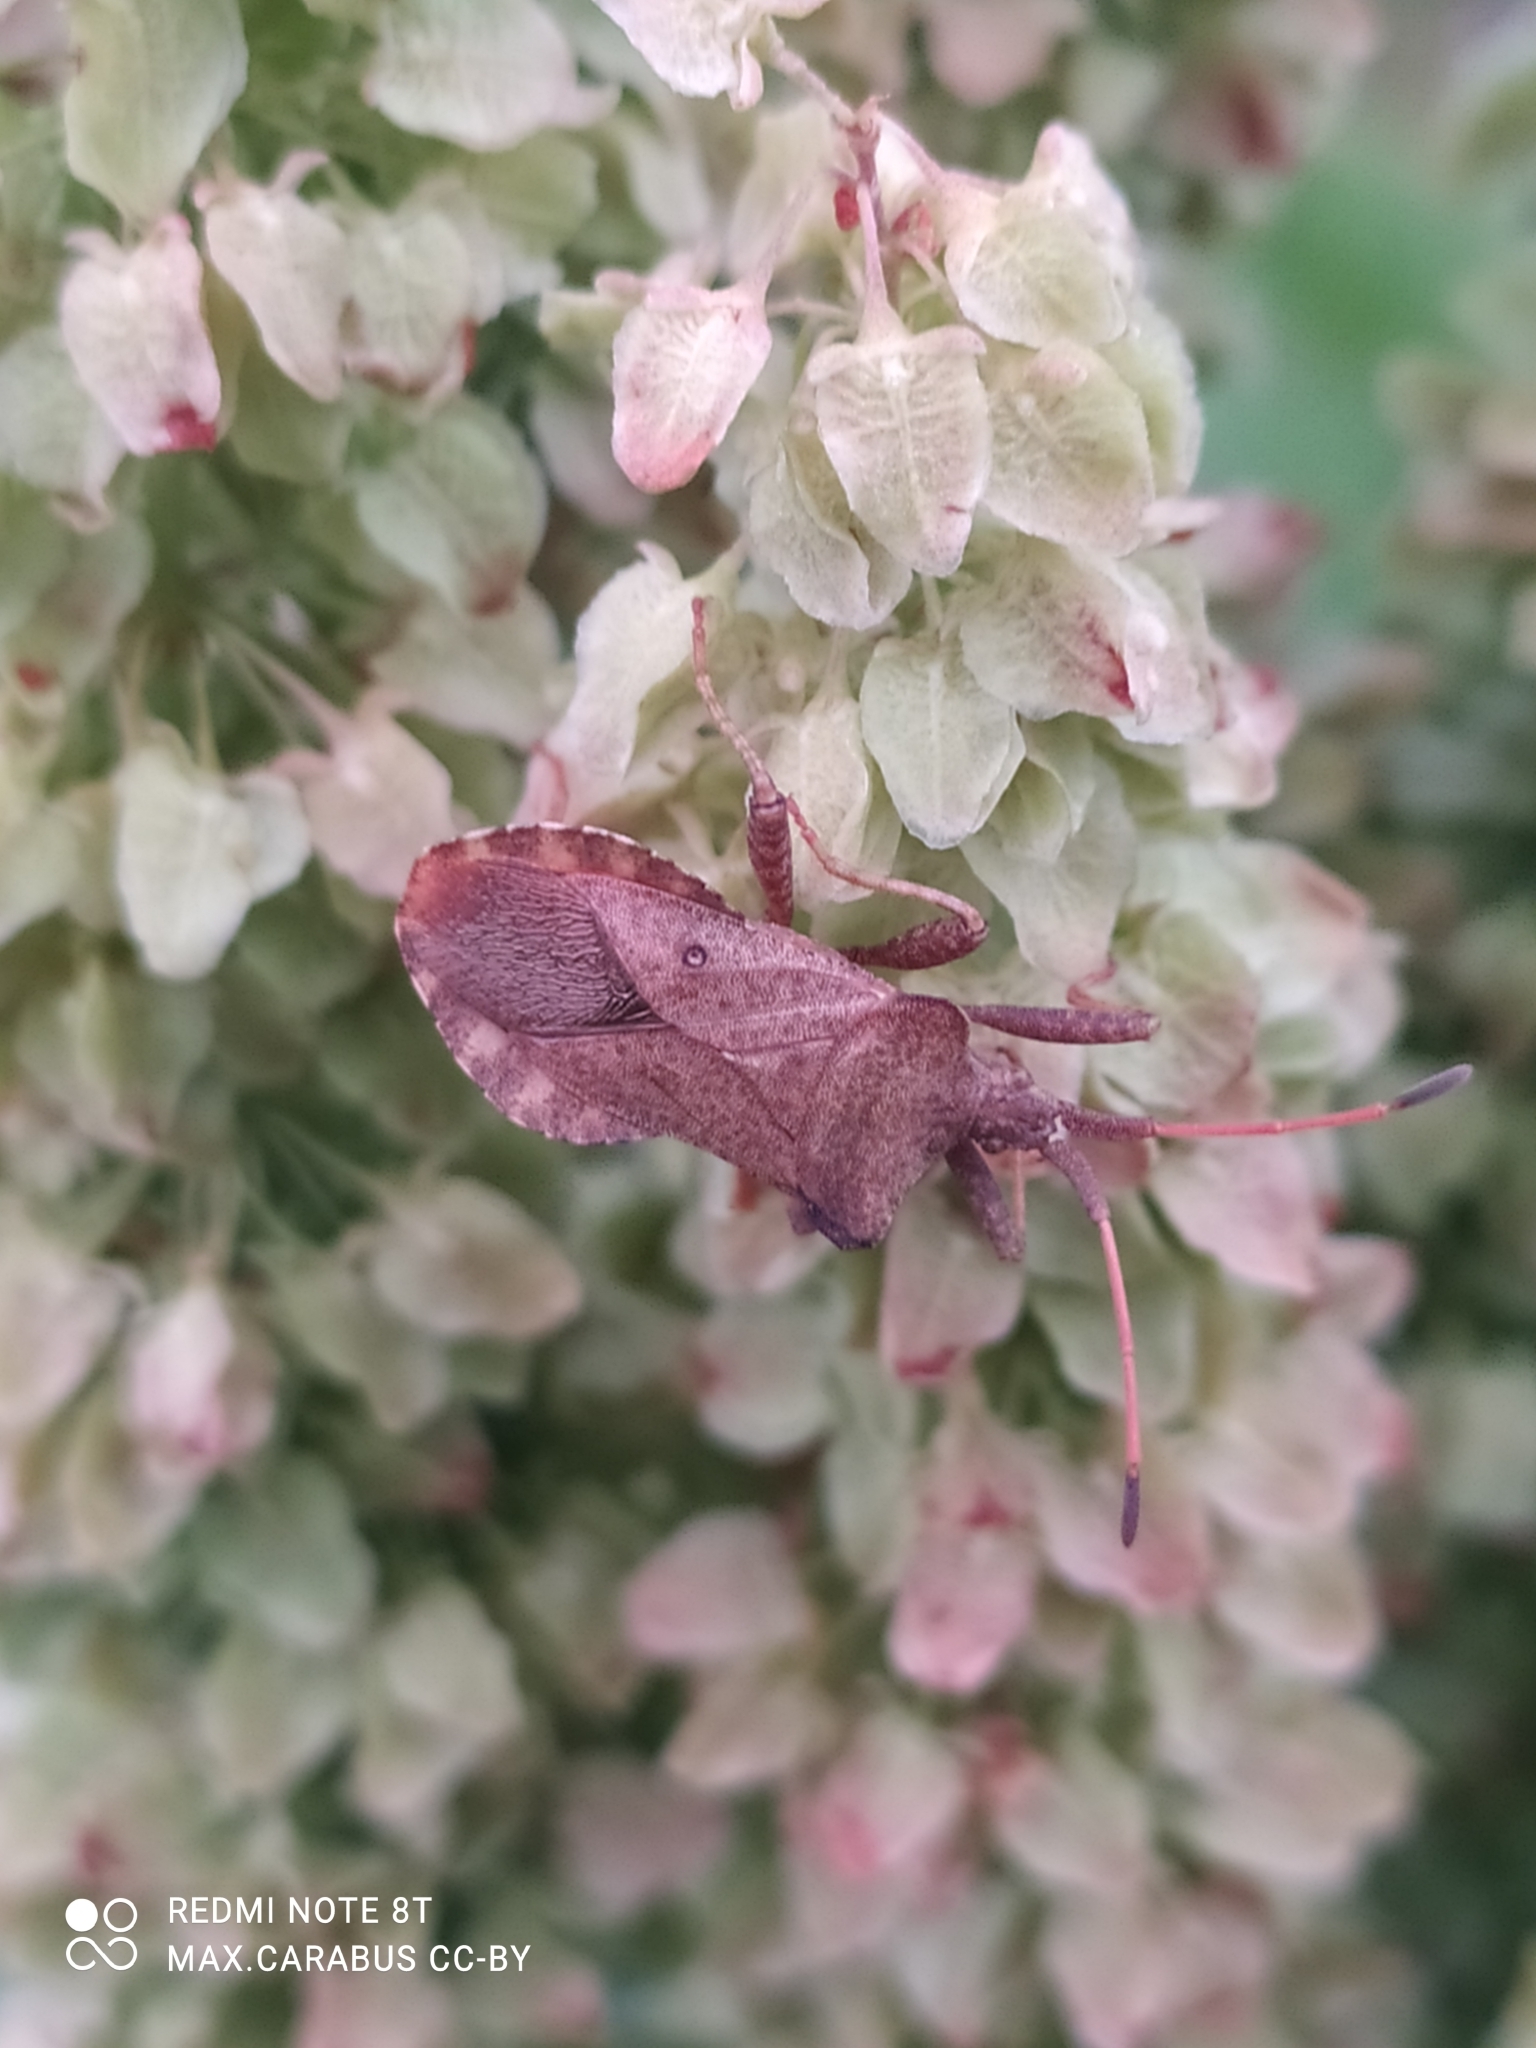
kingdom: Animalia
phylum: Arthropoda
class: Insecta
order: Hemiptera
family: Coreidae
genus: Coreus
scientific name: Coreus marginatus
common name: Dock bug
